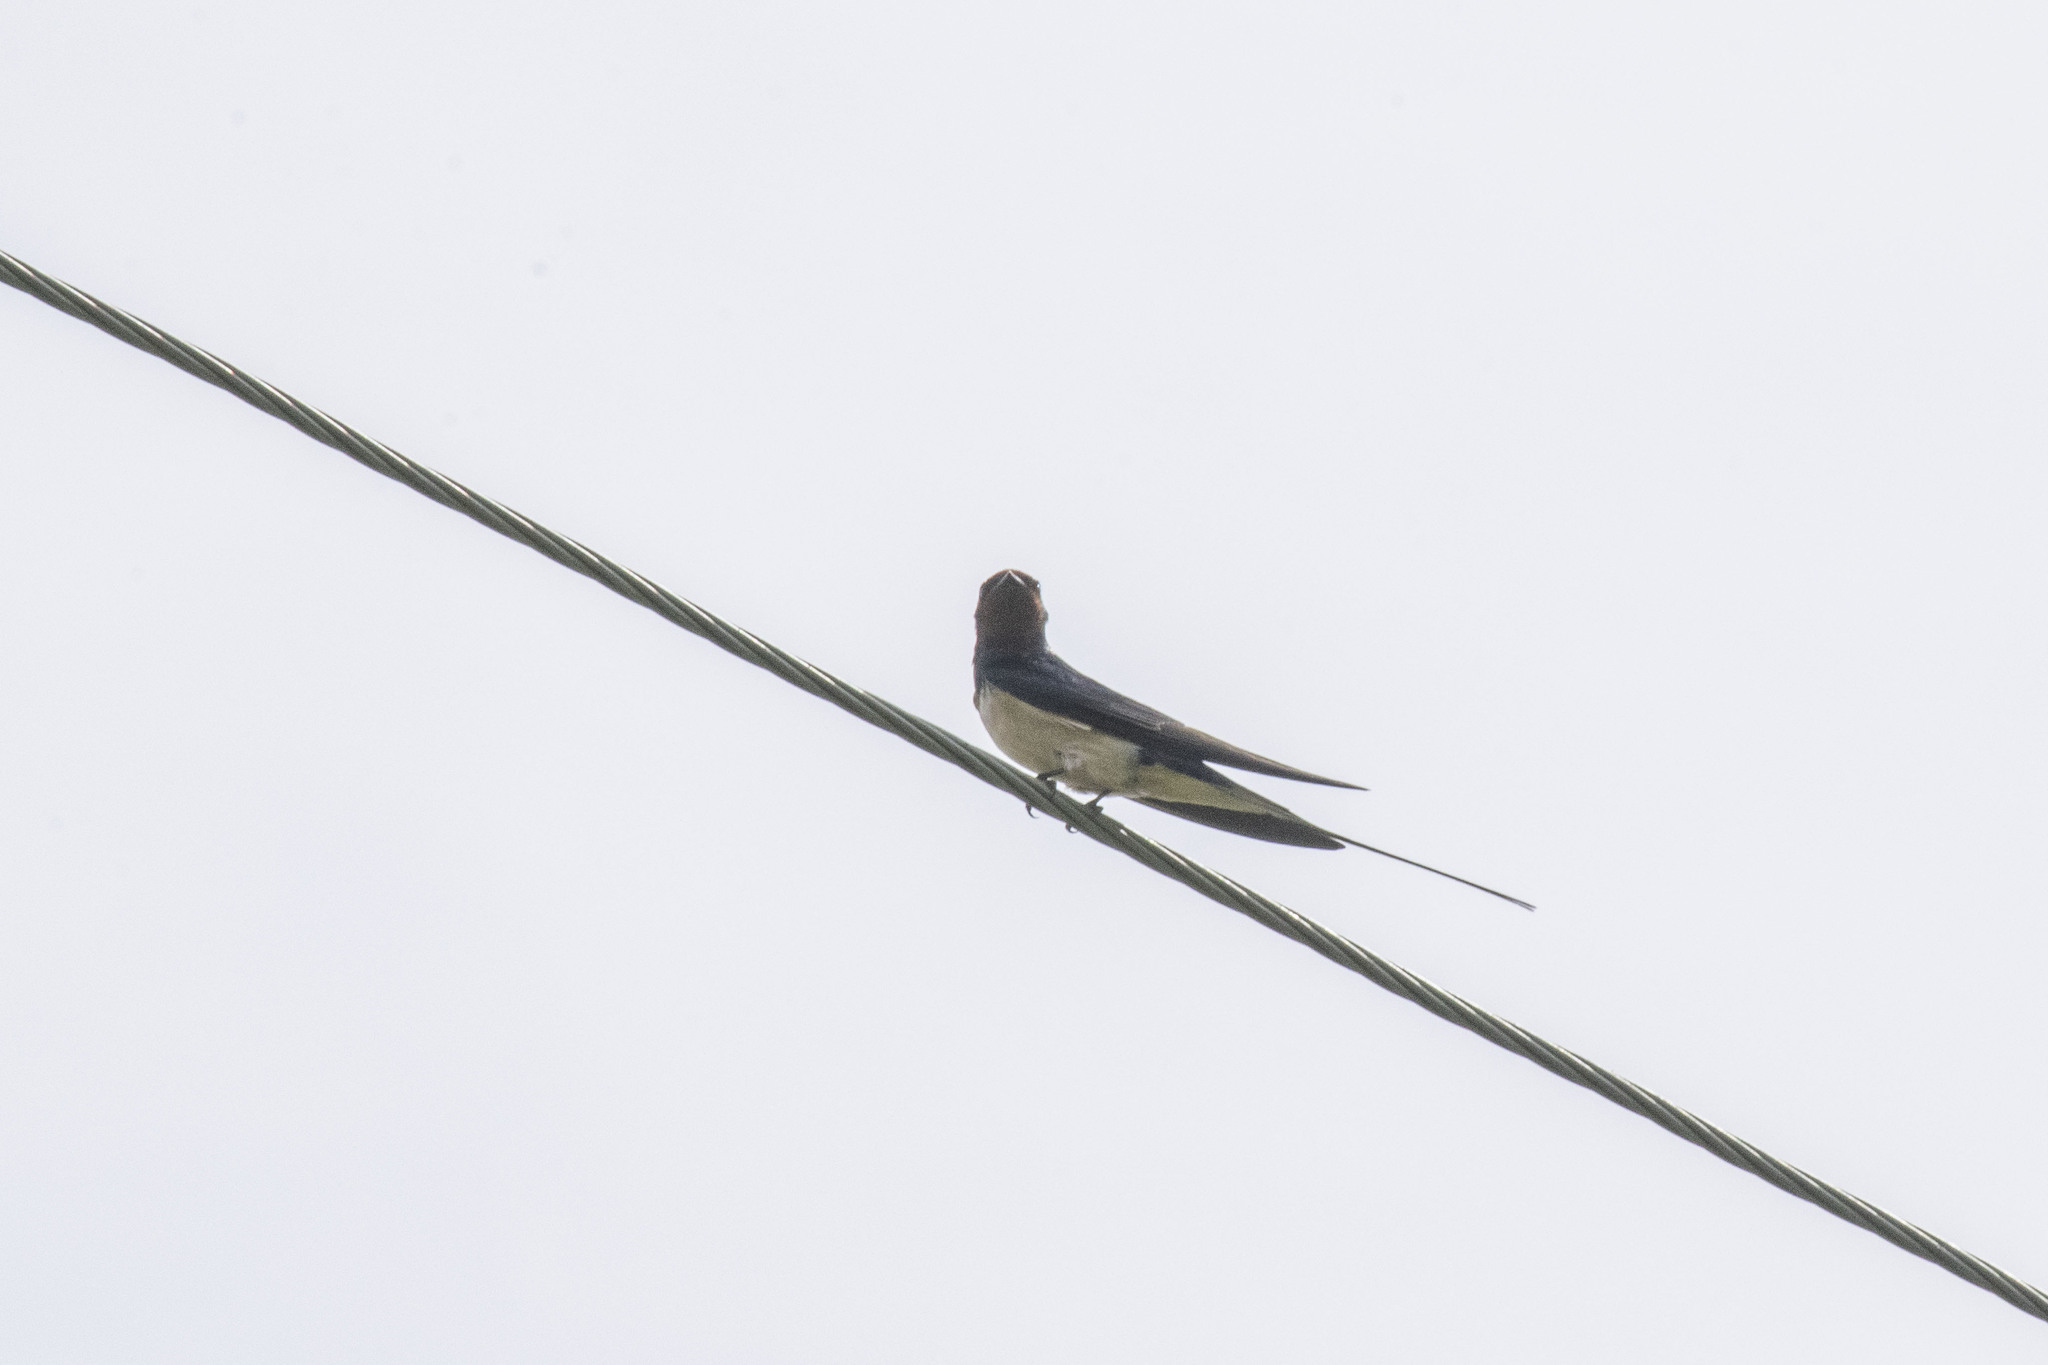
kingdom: Animalia
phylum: Chordata
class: Aves
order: Passeriformes
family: Hirundinidae
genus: Hirundo
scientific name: Hirundo rustica
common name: Barn swallow
